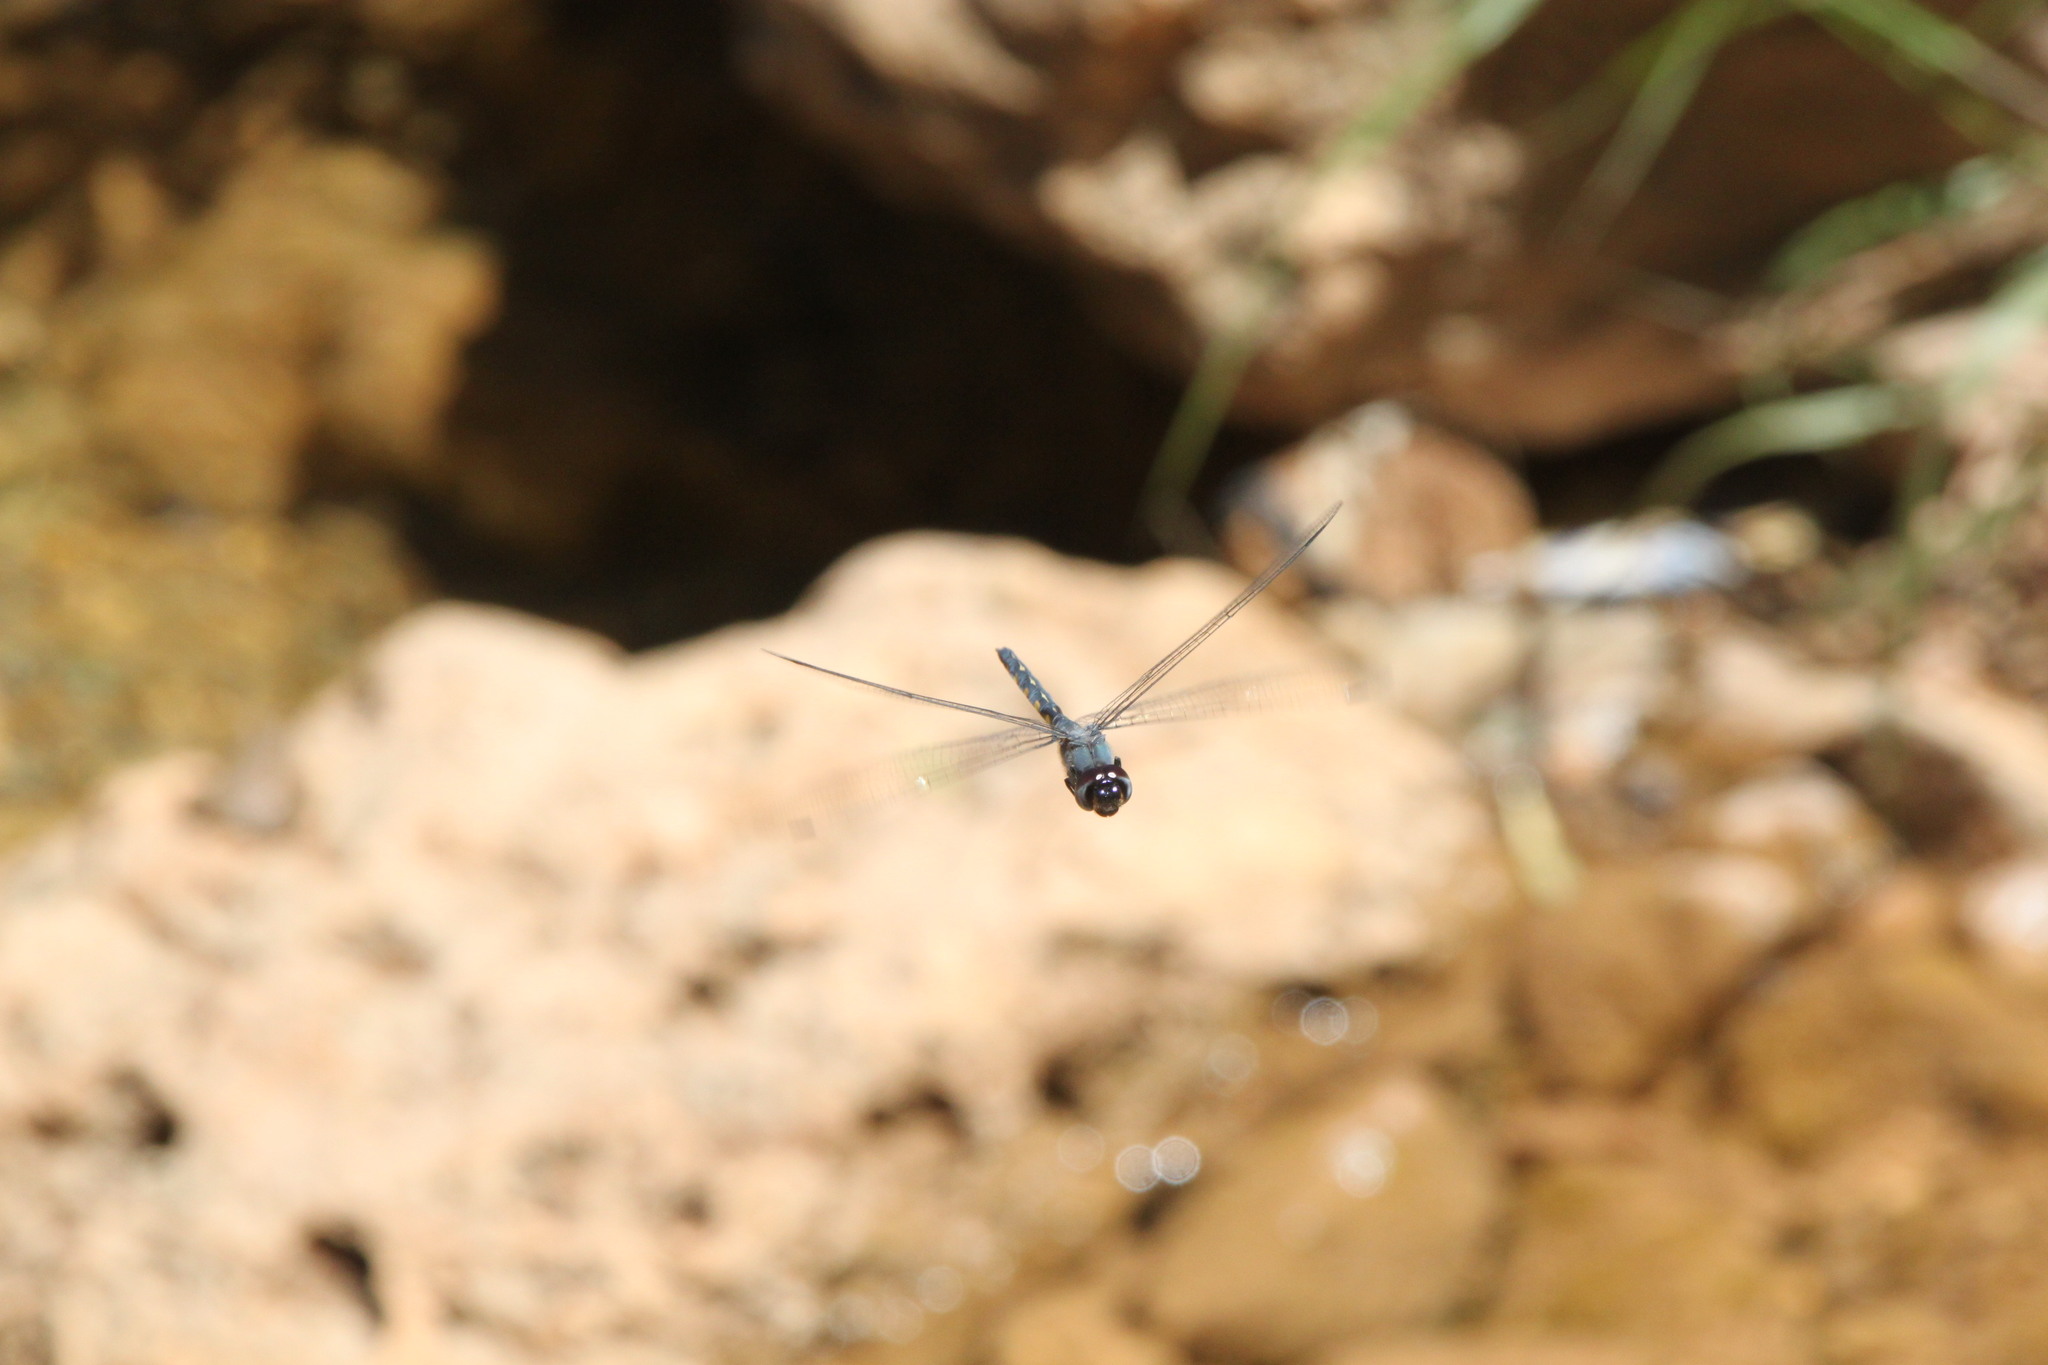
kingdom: Animalia
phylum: Arthropoda
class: Insecta
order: Odonata
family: Libellulidae
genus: Zygonyx
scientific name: Zygonyx torridus
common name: Ringed cascader
